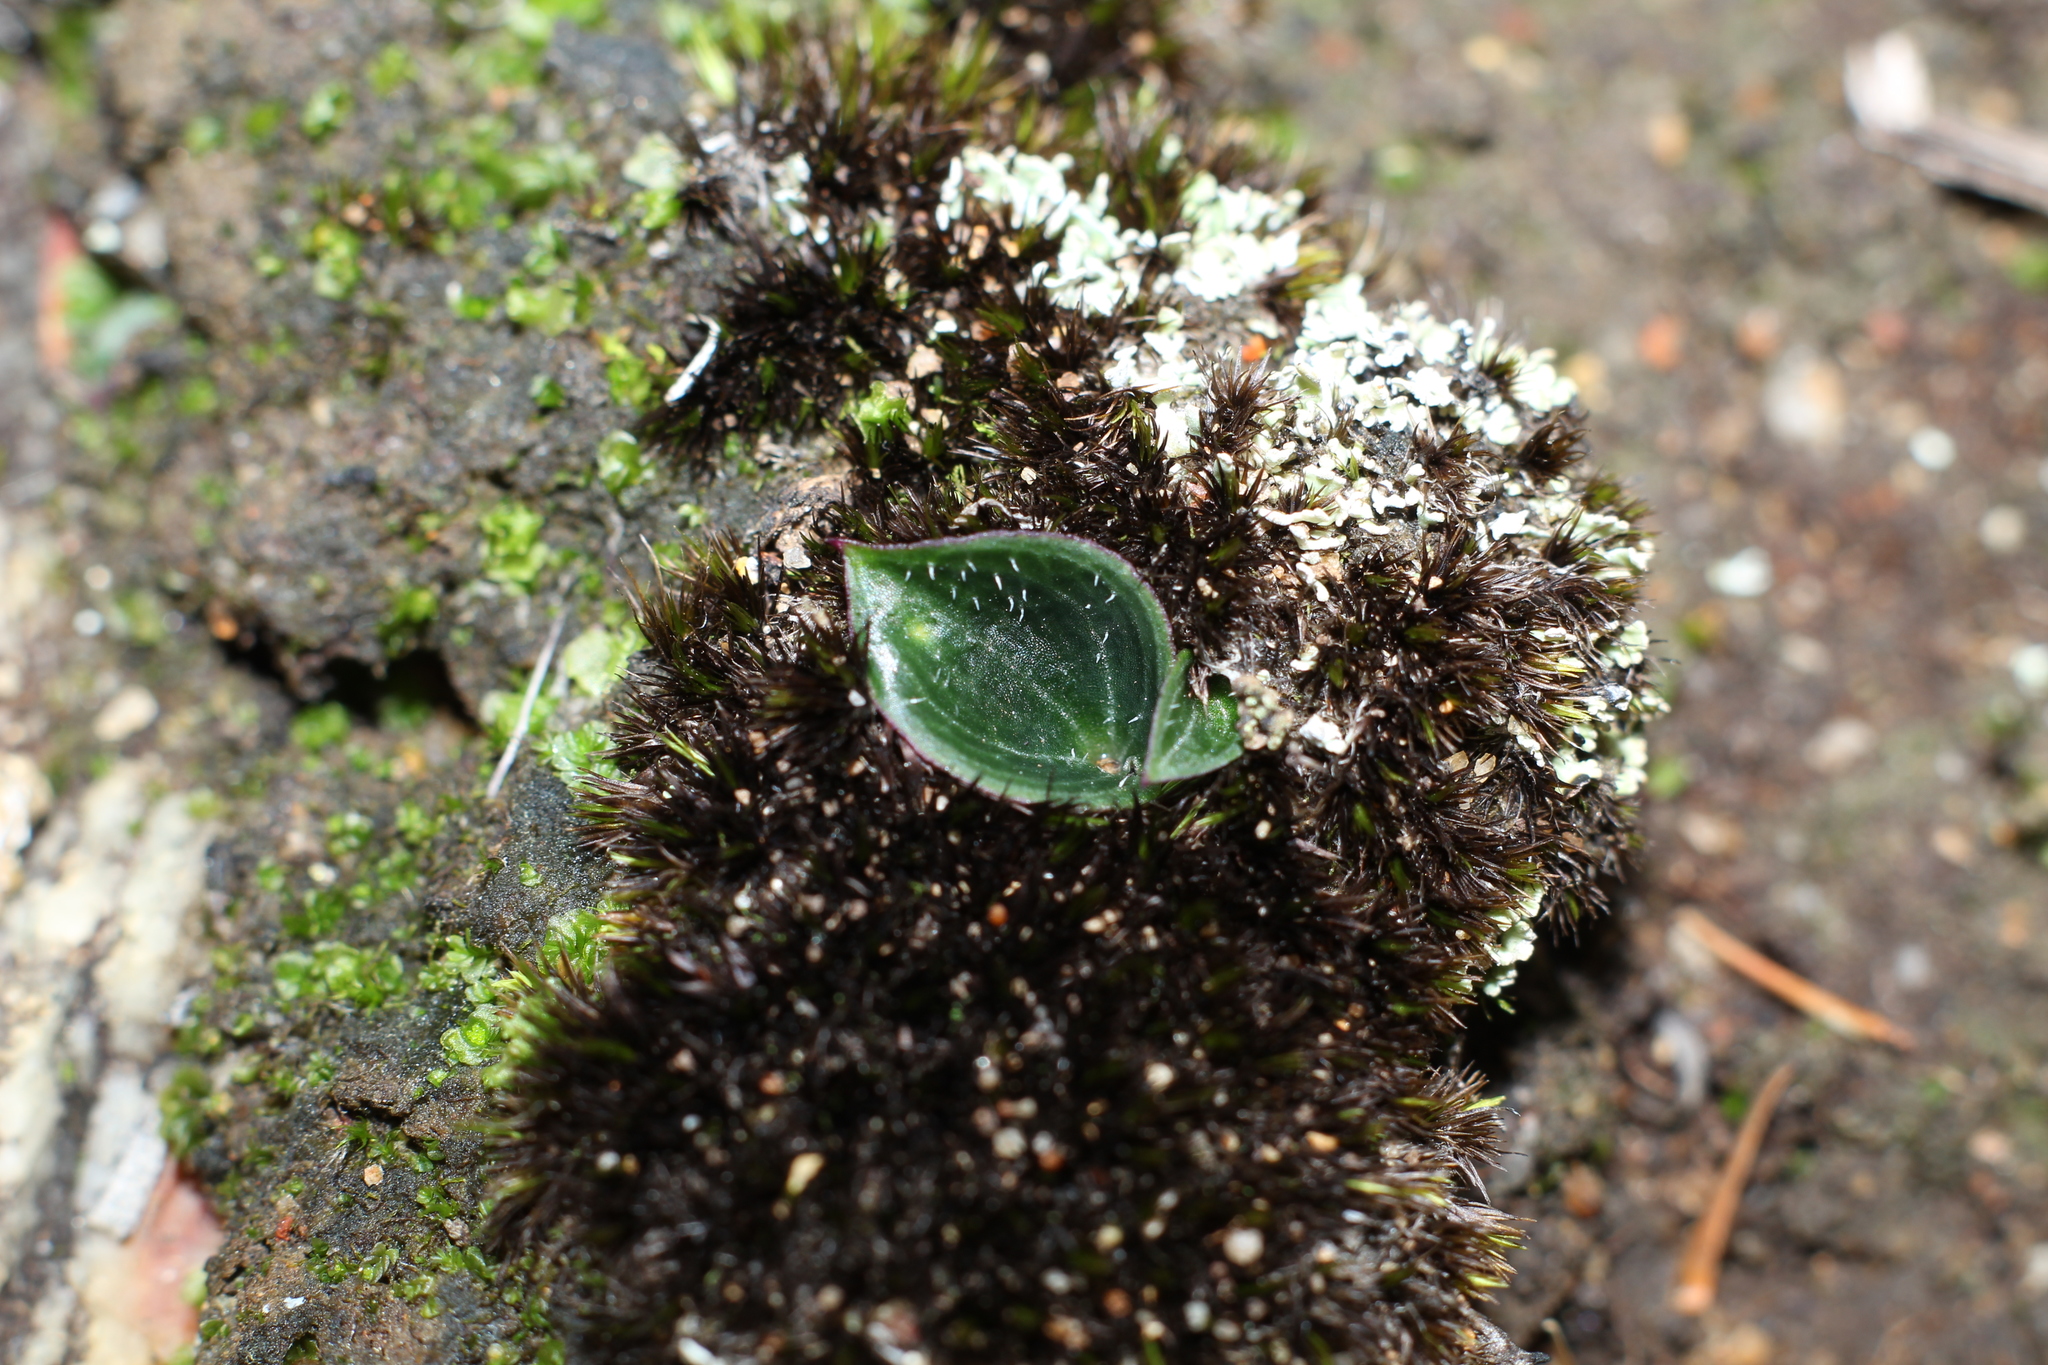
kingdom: Plantae
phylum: Tracheophyta
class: Liliopsida
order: Asparagales
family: Orchidaceae
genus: Eriochilus
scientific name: Eriochilus scaber
